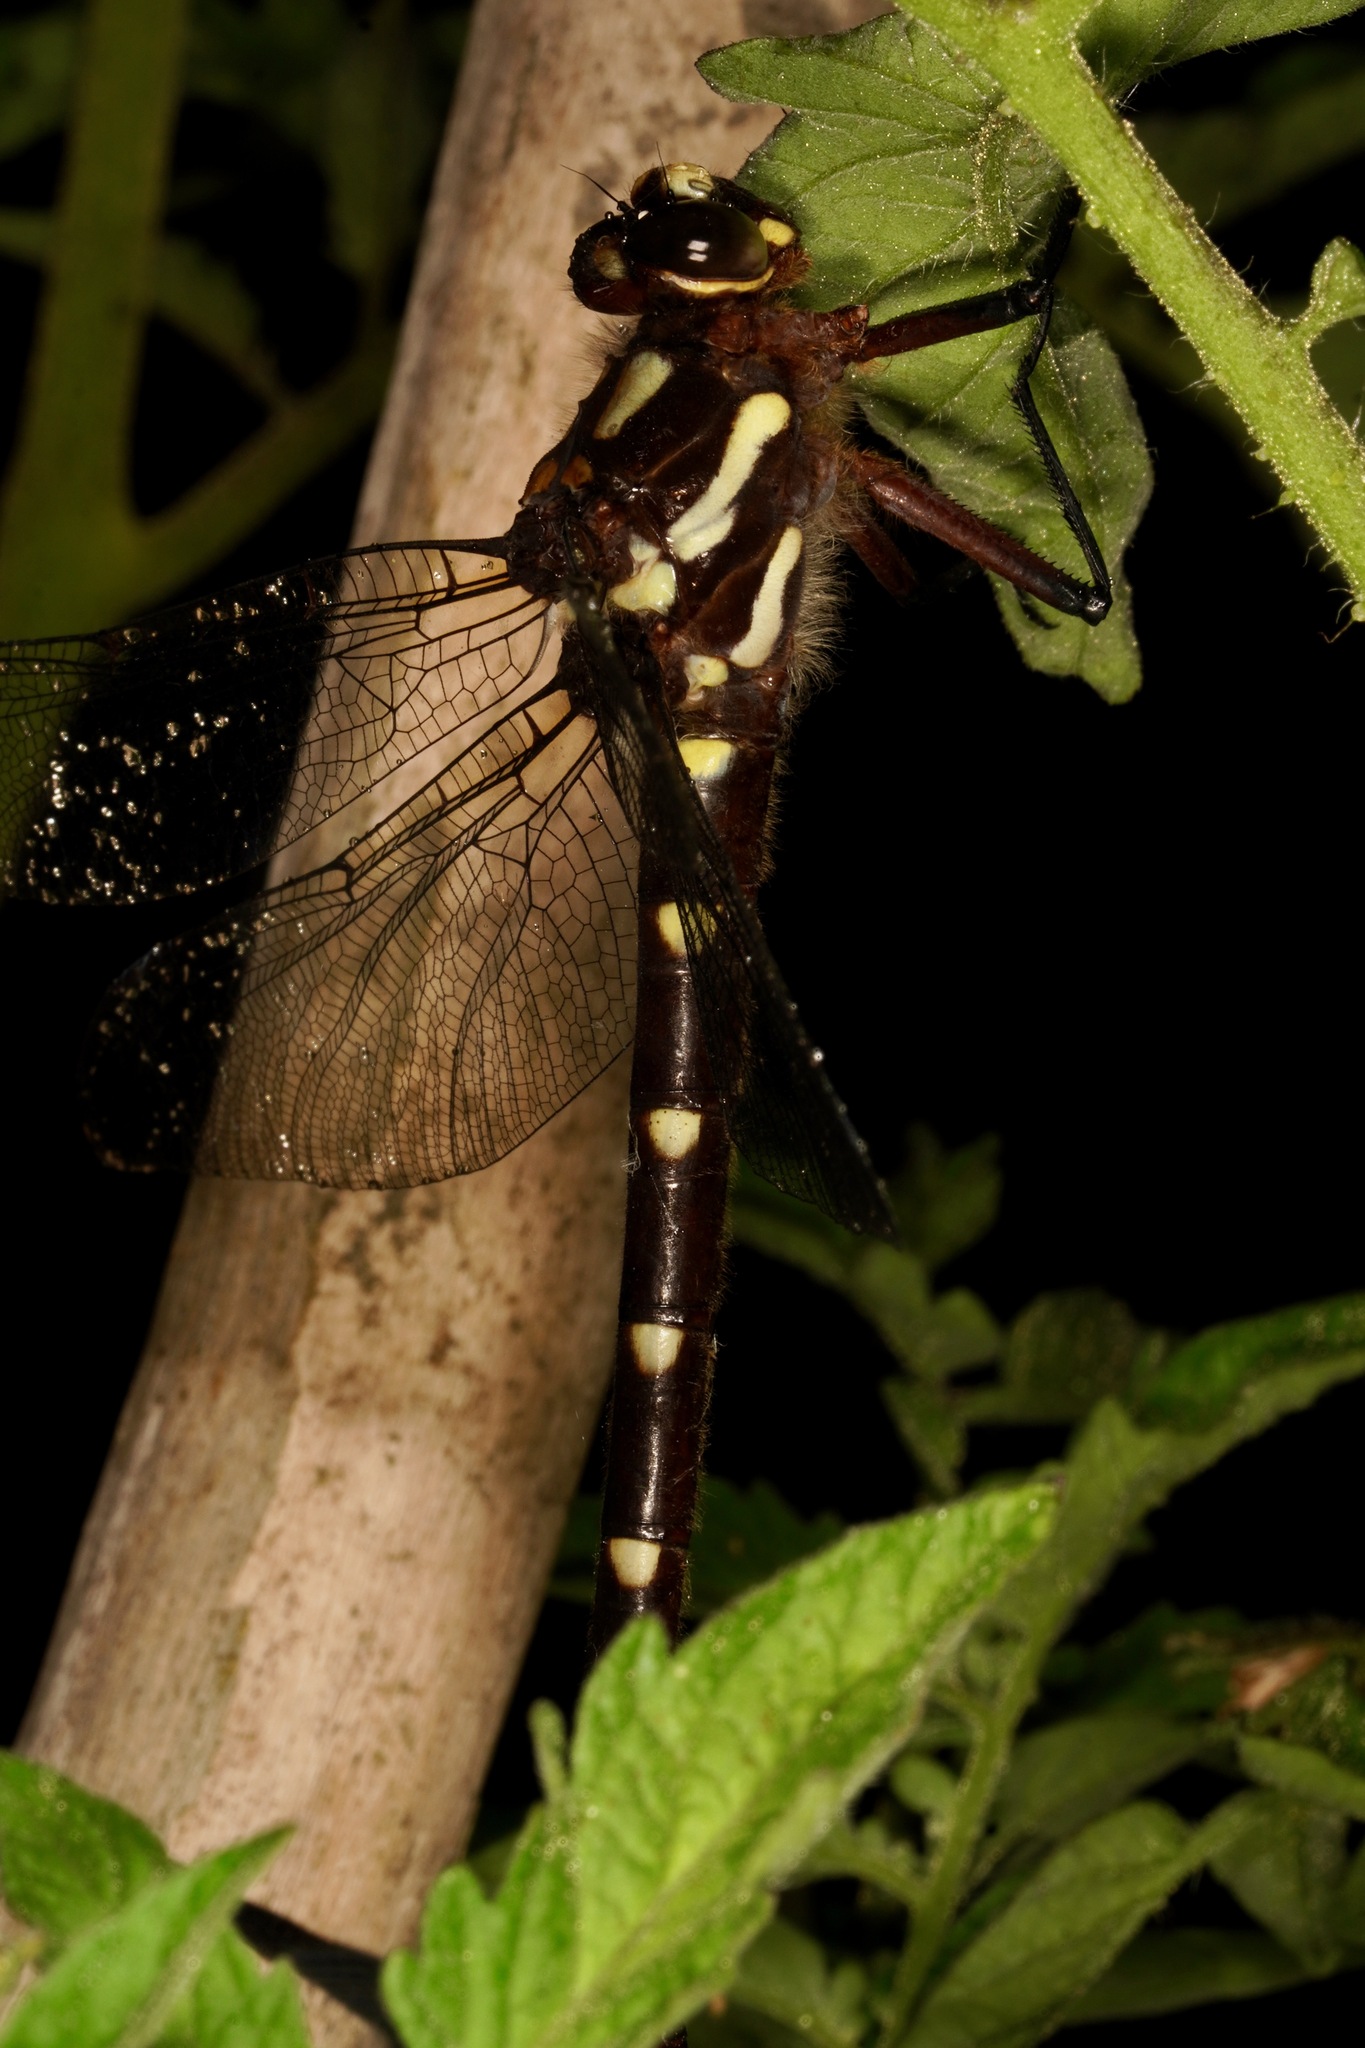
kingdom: Animalia
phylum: Arthropoda
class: Insecta
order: Odonata
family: Petaluridae
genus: Uropetala
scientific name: Uropetala carovei
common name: Bush giant dragonfly
